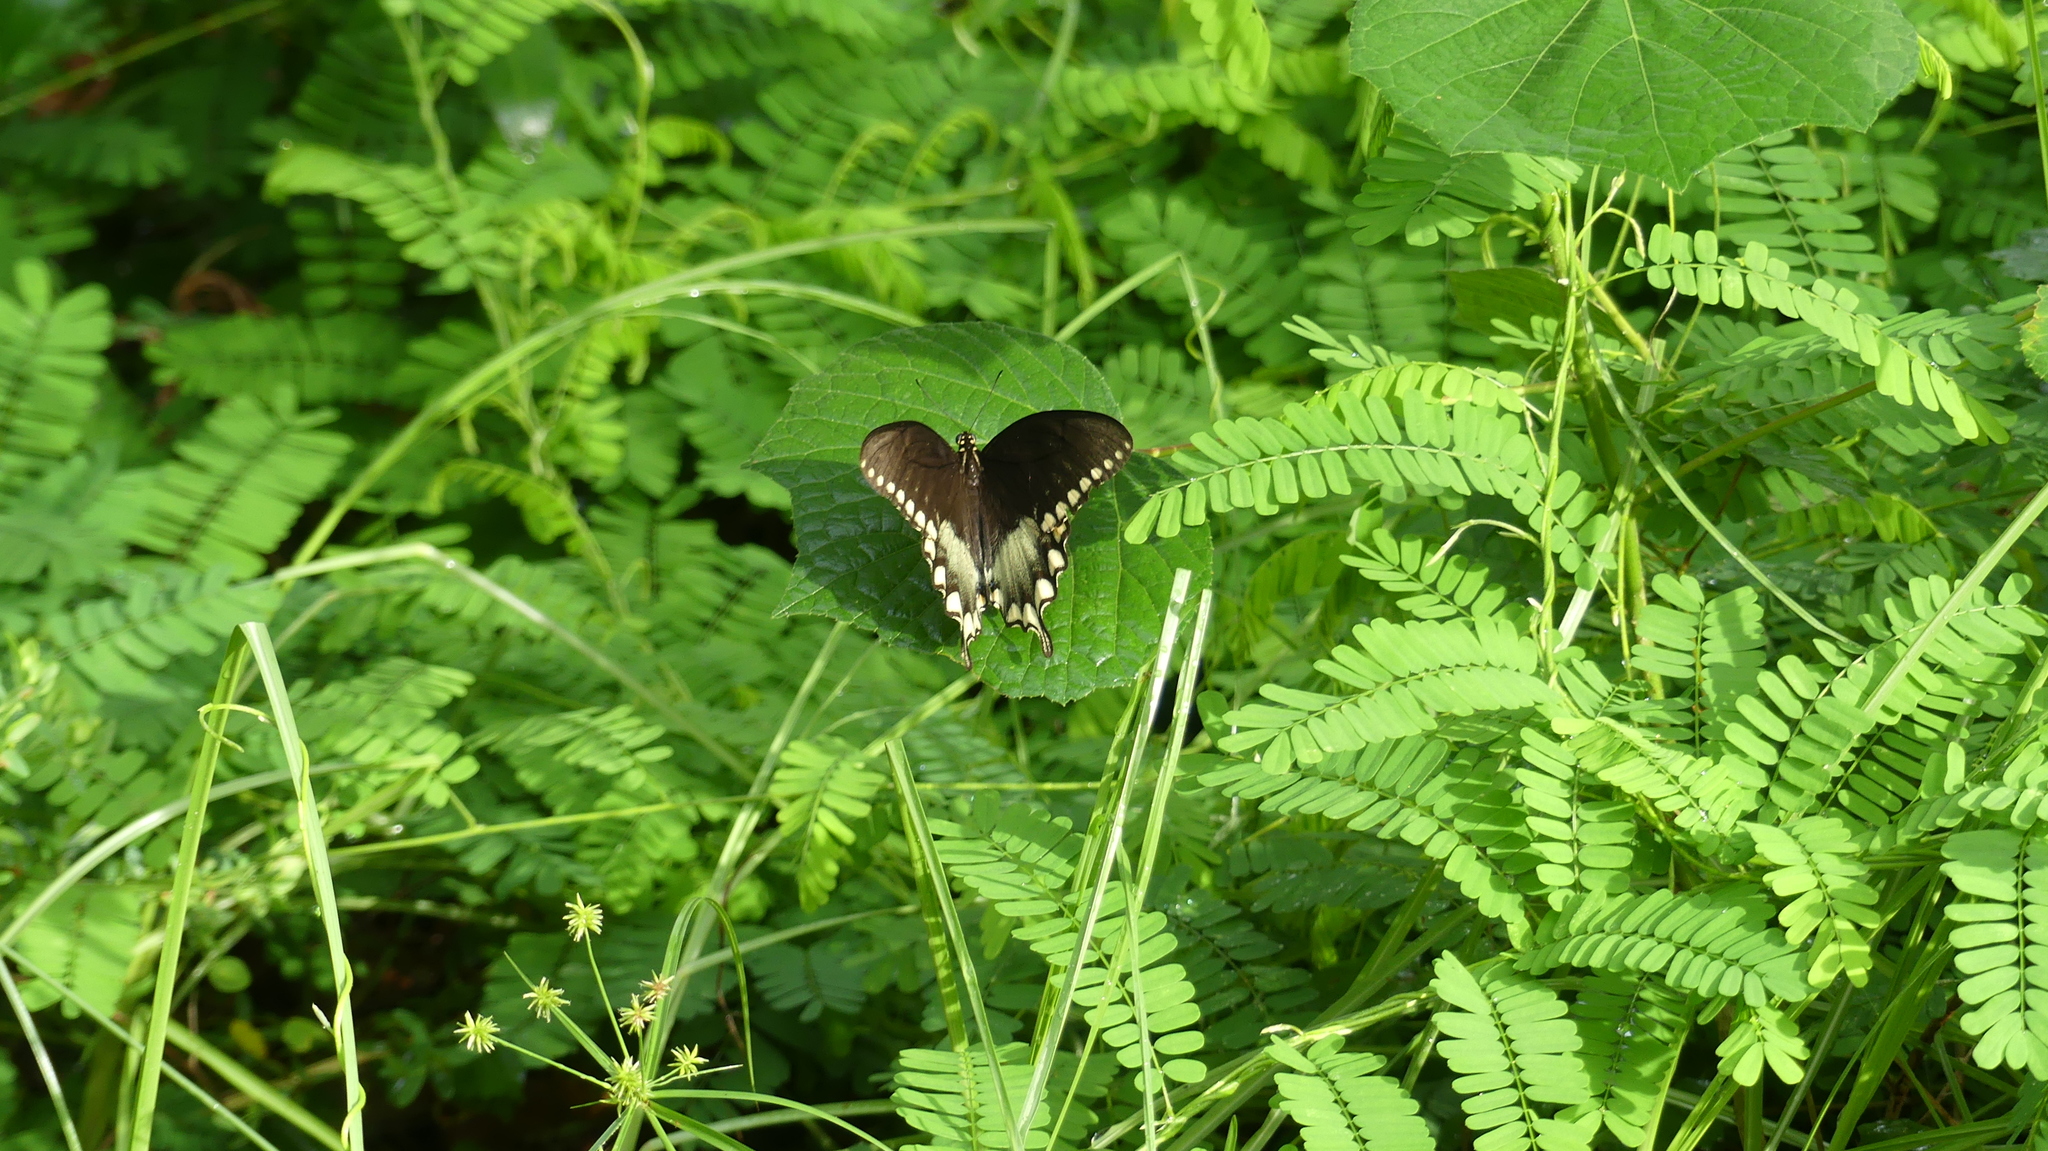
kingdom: Animalia
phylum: Arthropoda
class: Insecta
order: Lepidoptera
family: Papilionidae
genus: Papilio
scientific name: Papilio troilus
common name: Spicebush swallowtail
